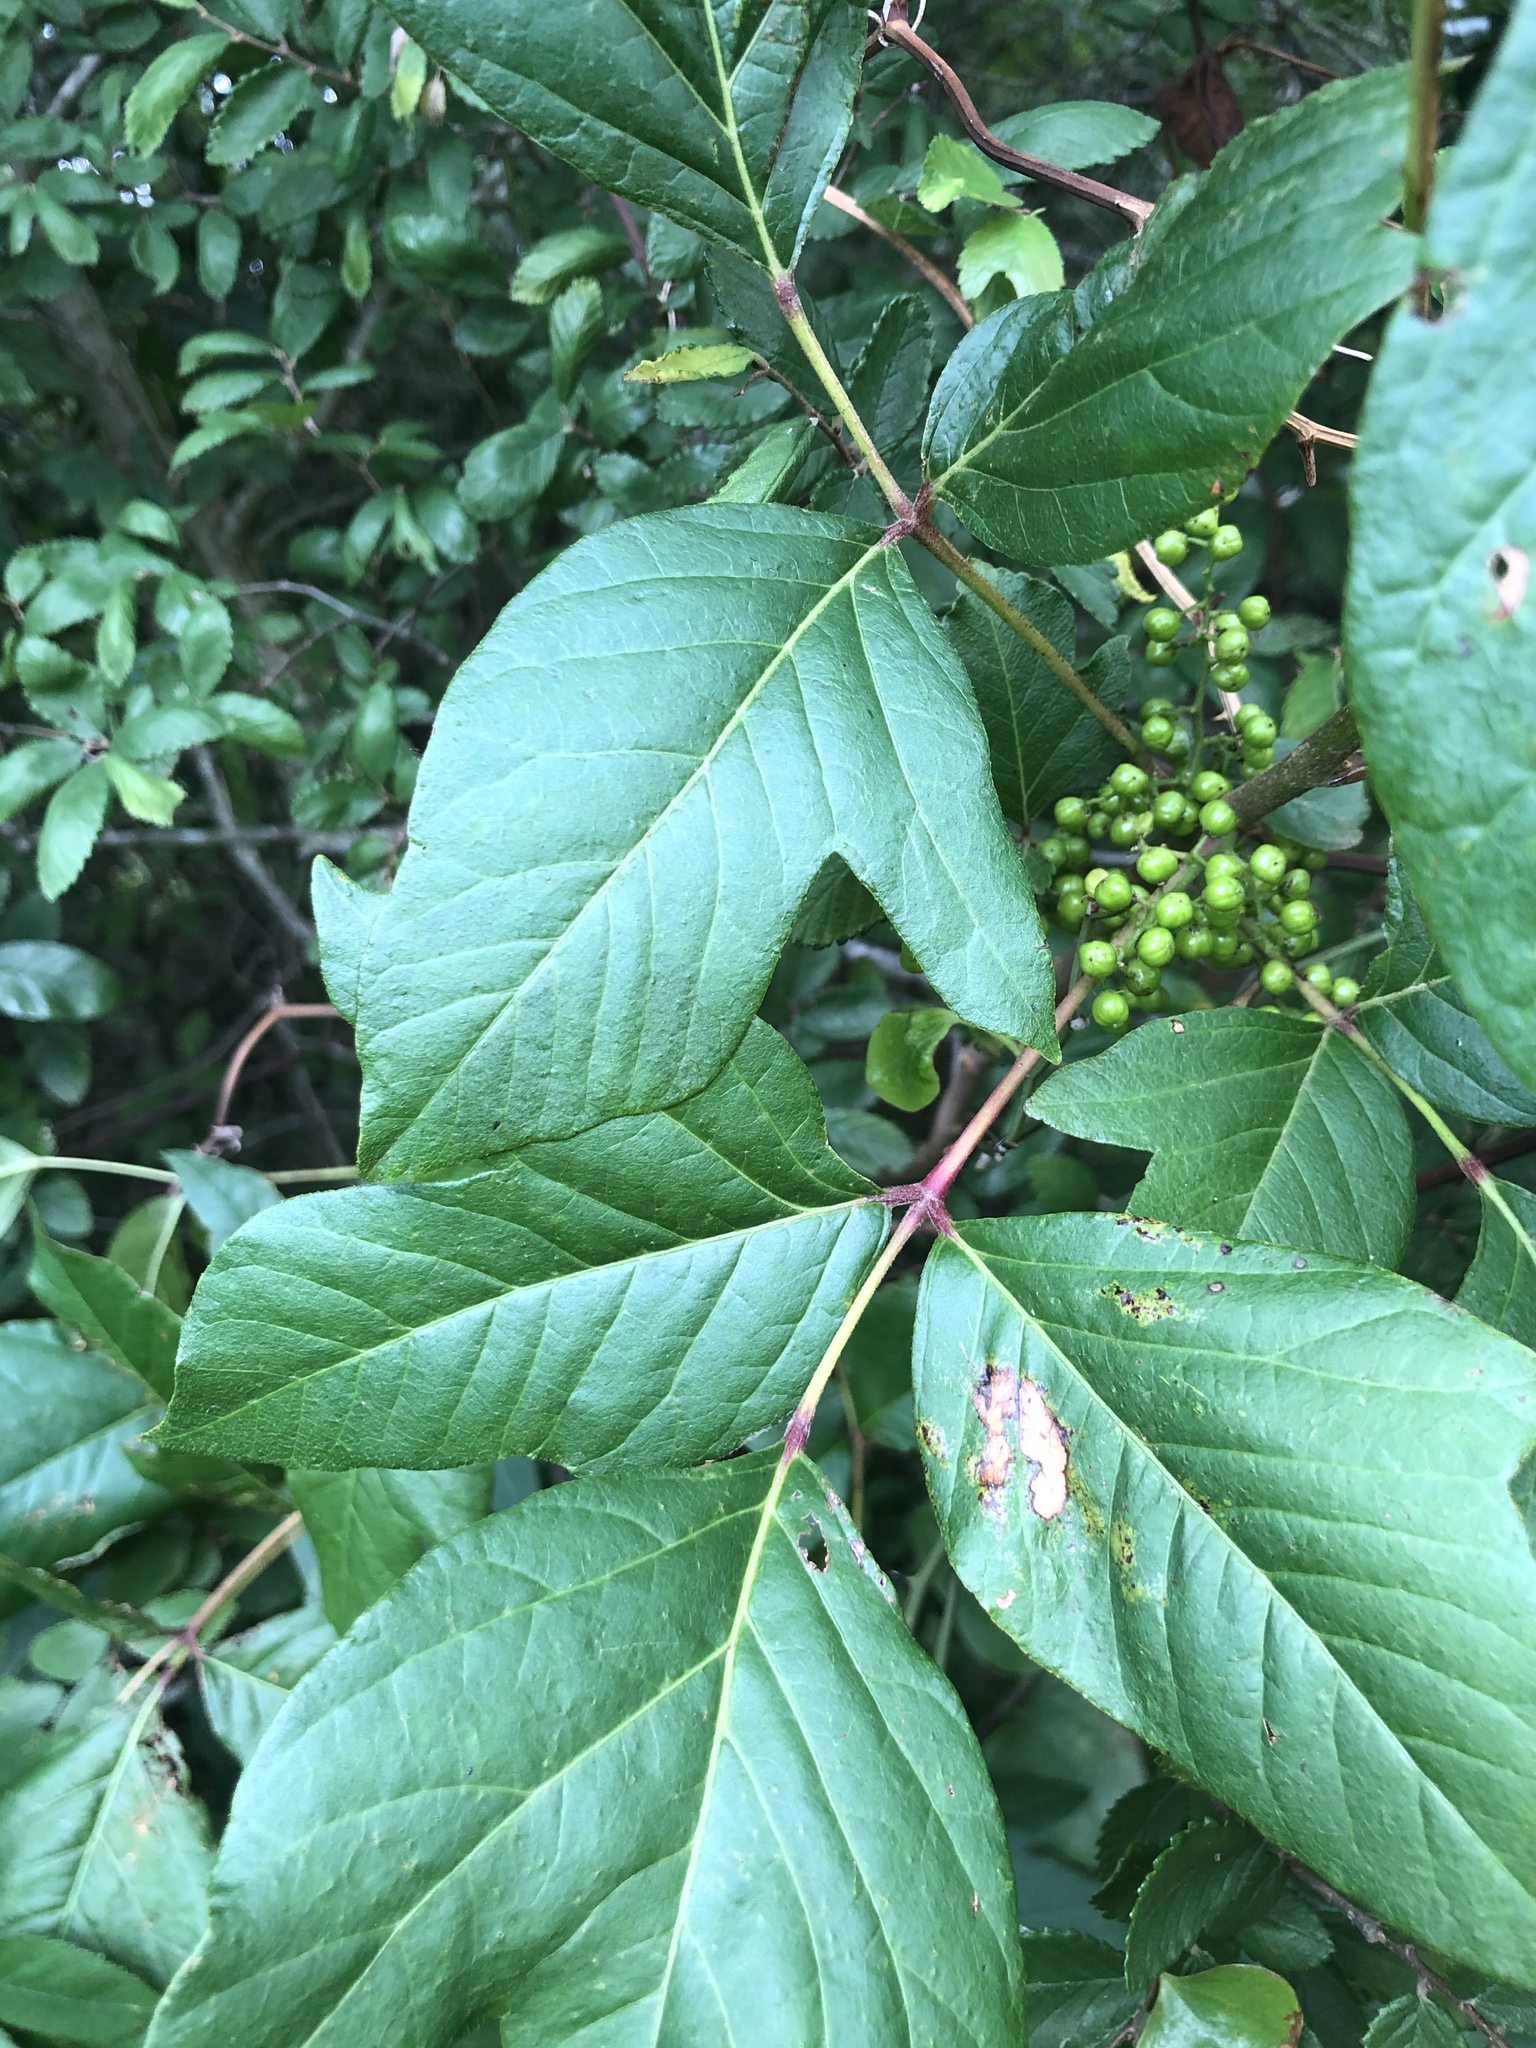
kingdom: Plantae
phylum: Tracheophyta
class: Magnoliopsida
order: Sapindales
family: Anacardiaceae
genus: Toxicodendron
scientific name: Toxicodendron radicans
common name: Poison ivy
